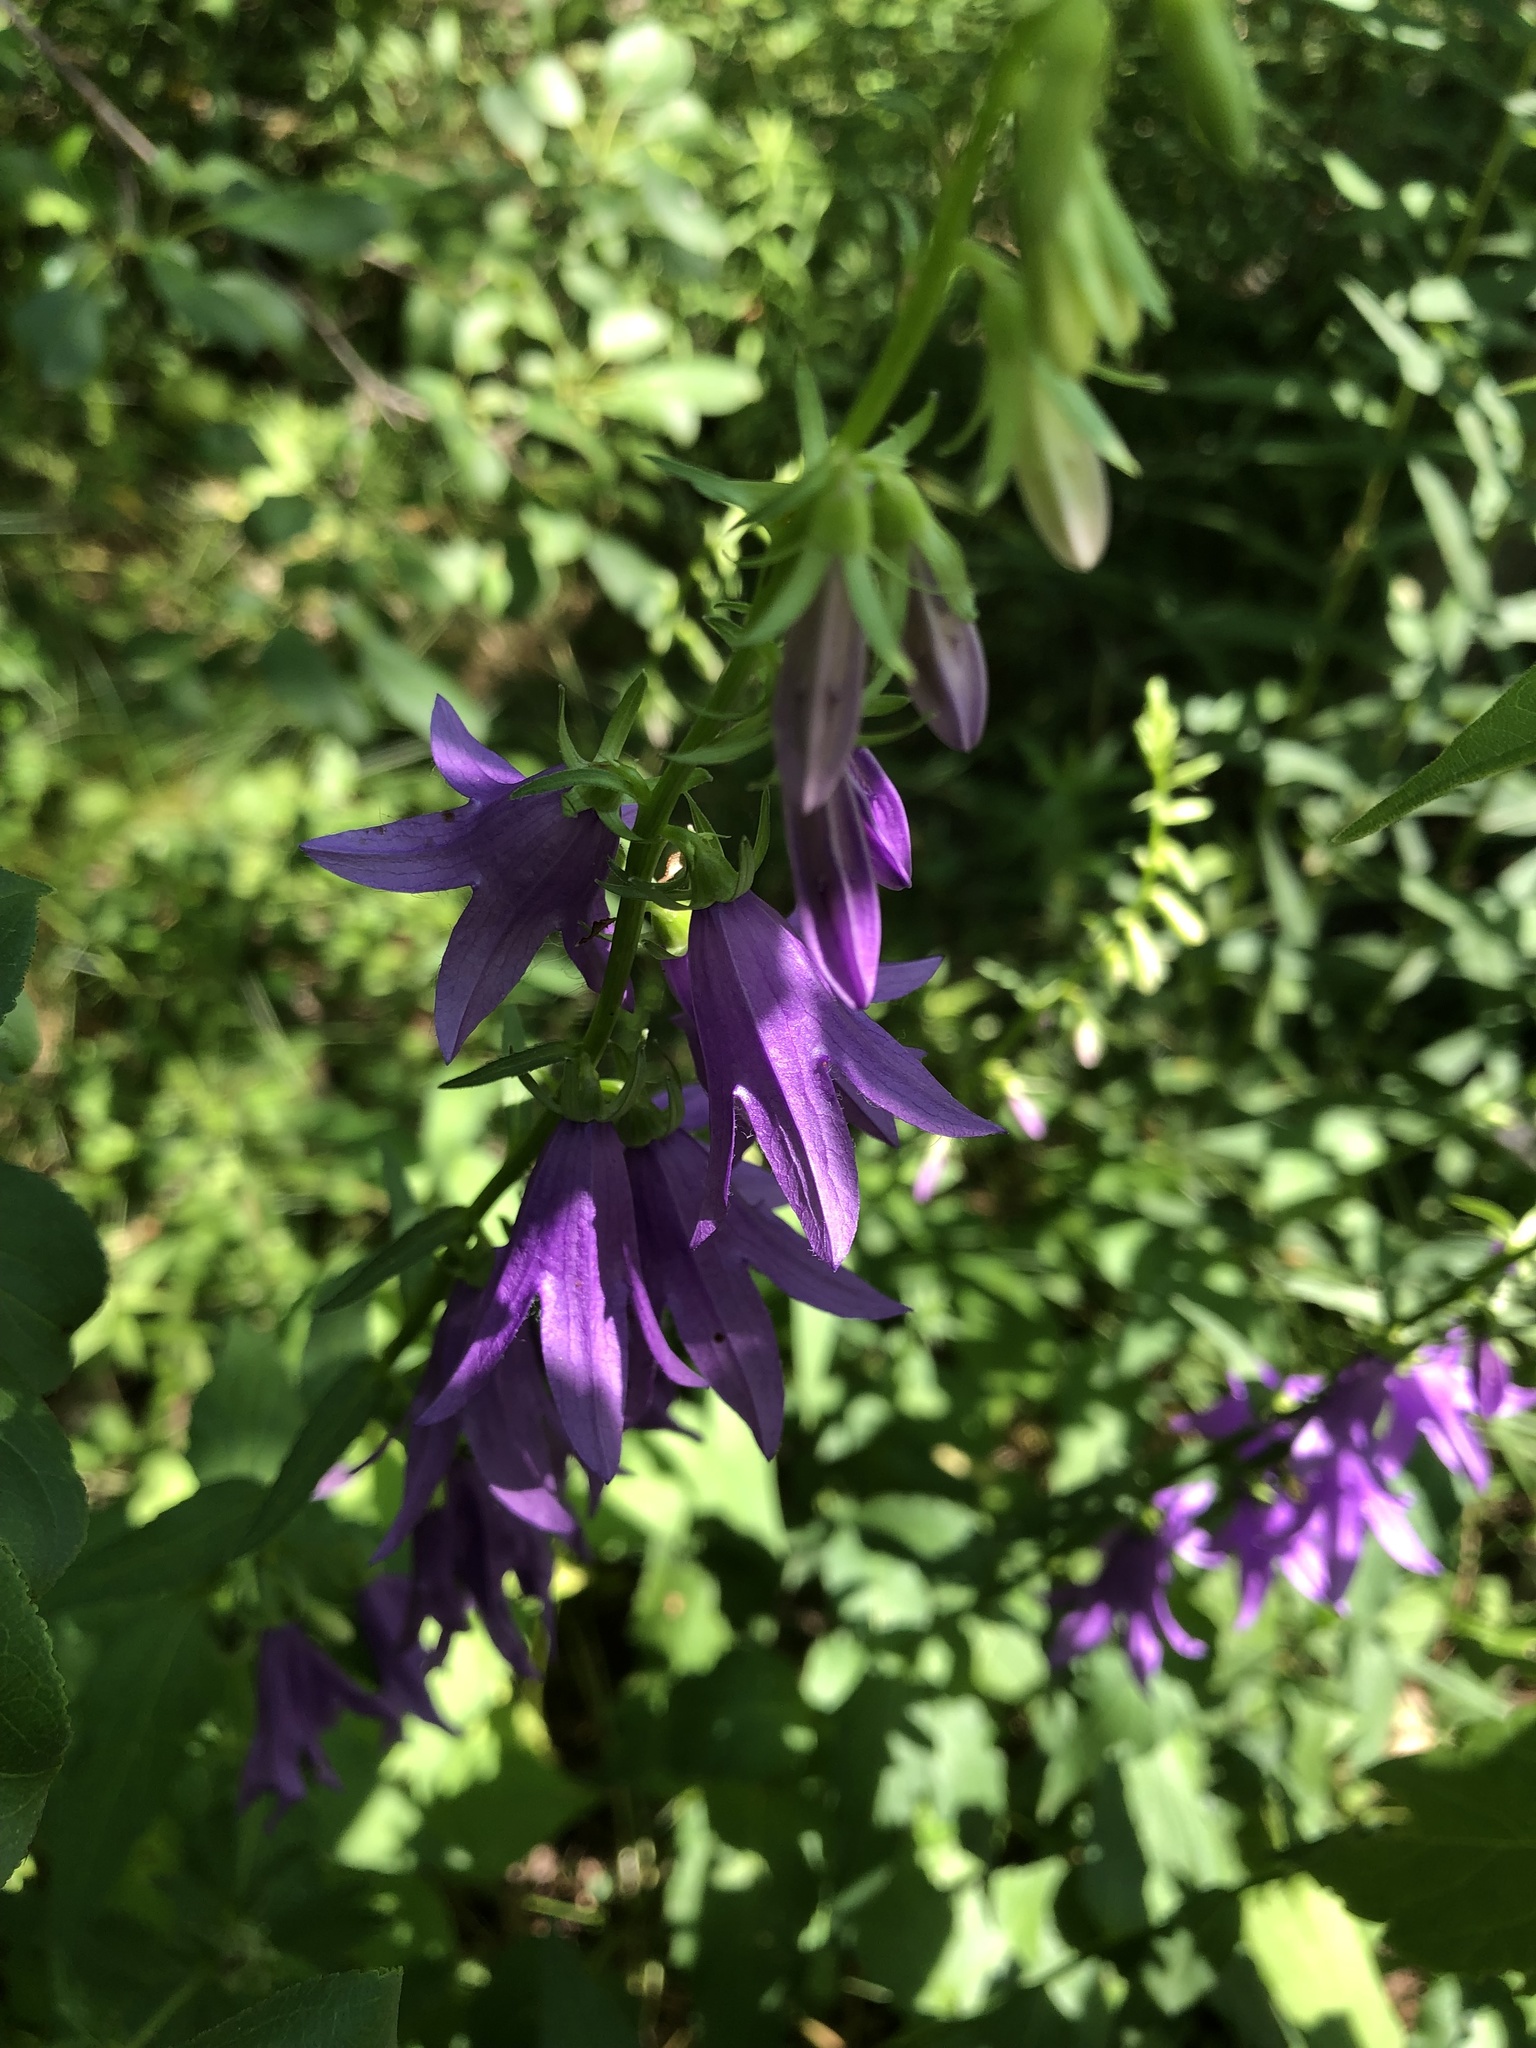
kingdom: Plantae
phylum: Tracheophyta
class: Magnoliopsida
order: Asterales
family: Campanulaceae
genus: Campanula
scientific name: Campanula rapunculoides
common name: Creeping bellflower
